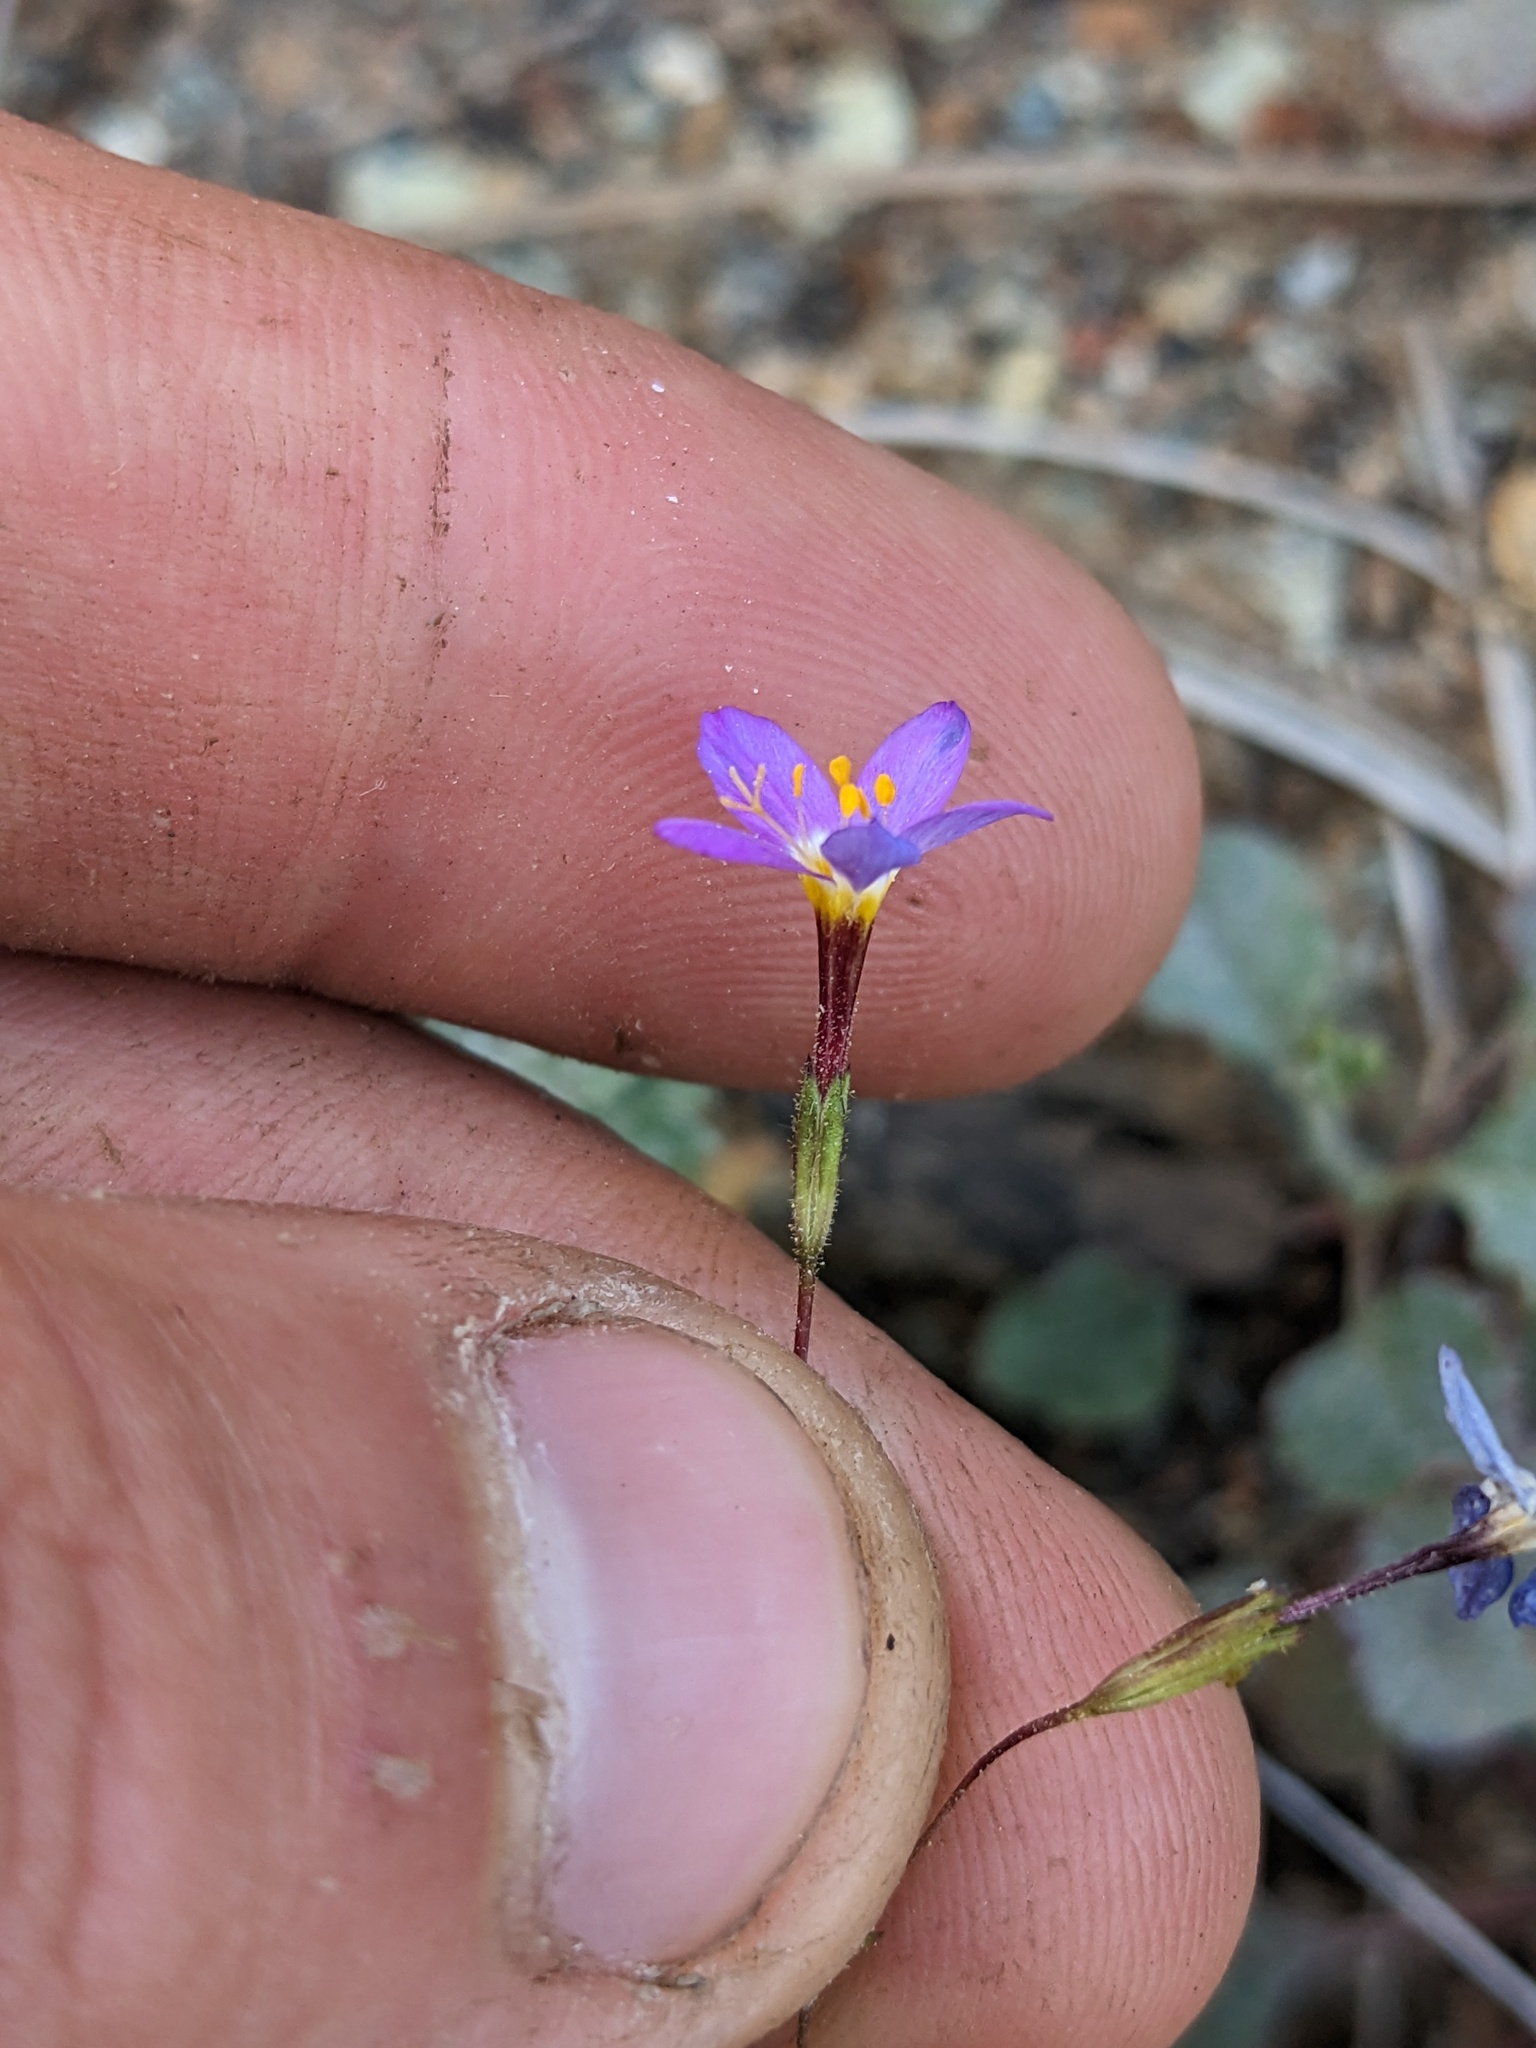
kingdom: Plantae
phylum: Tracheophyta
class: Magnoliopsida
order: Ericales
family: Polemoniaceae
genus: Leptosiphon
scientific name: Leptosiphon ambiguus
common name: Serpentine linanthus
